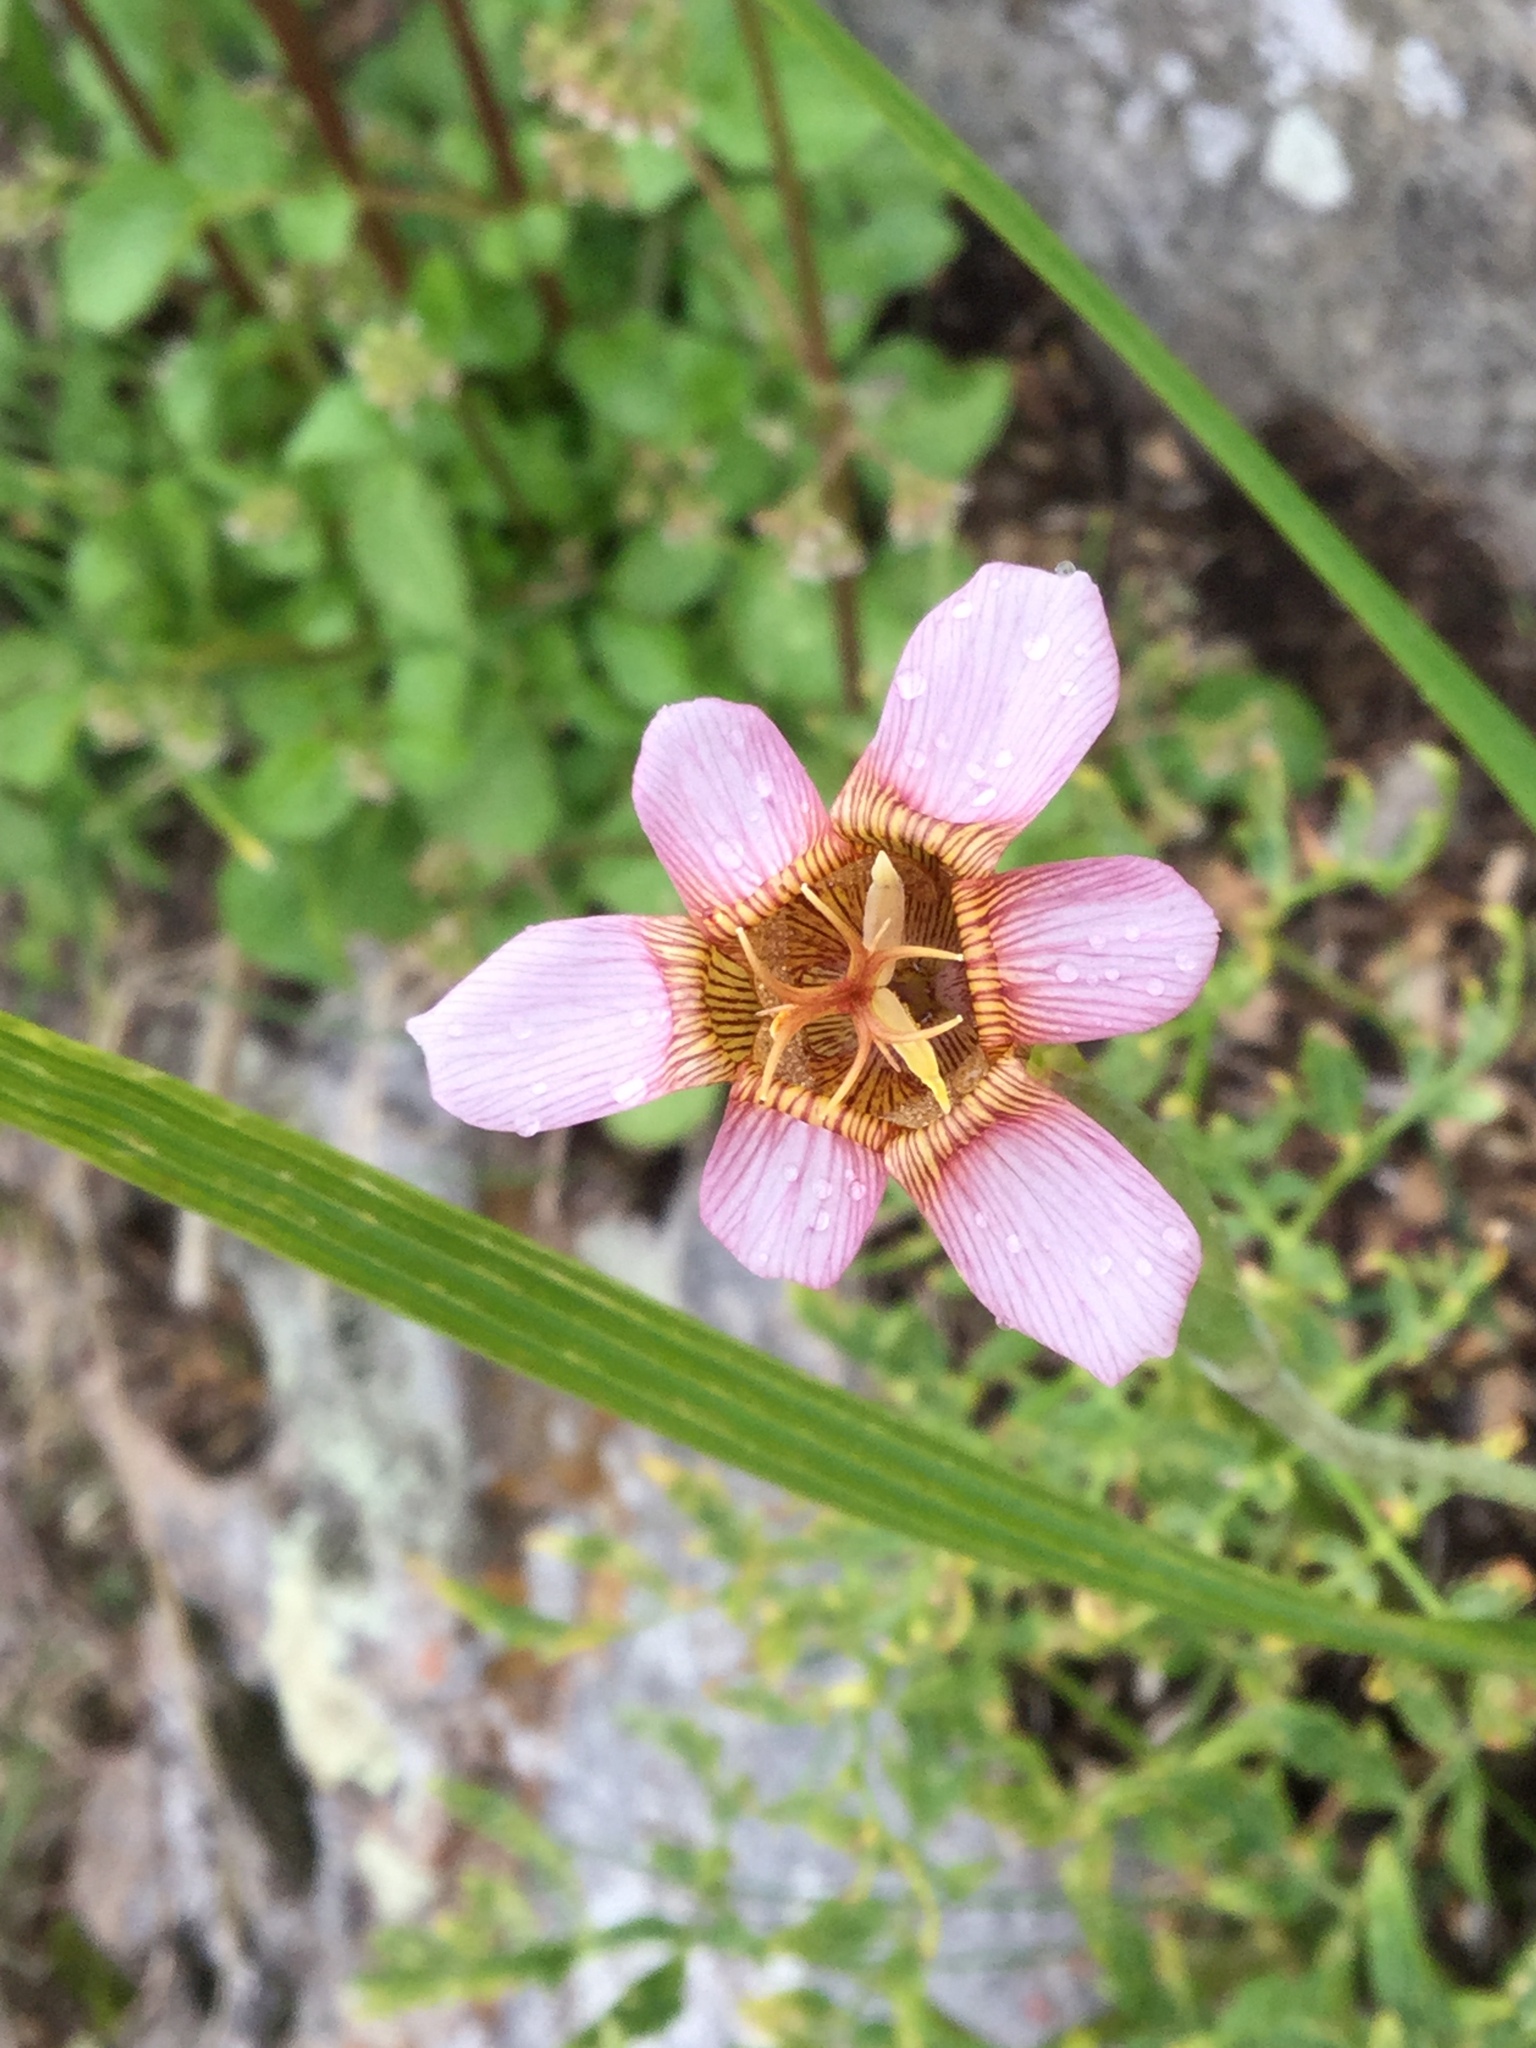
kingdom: Plantae
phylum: Tracheophyta
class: Liliopsida
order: Asparagales
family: Iridaceae
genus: Tigridia
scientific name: Tigridia multiflora
